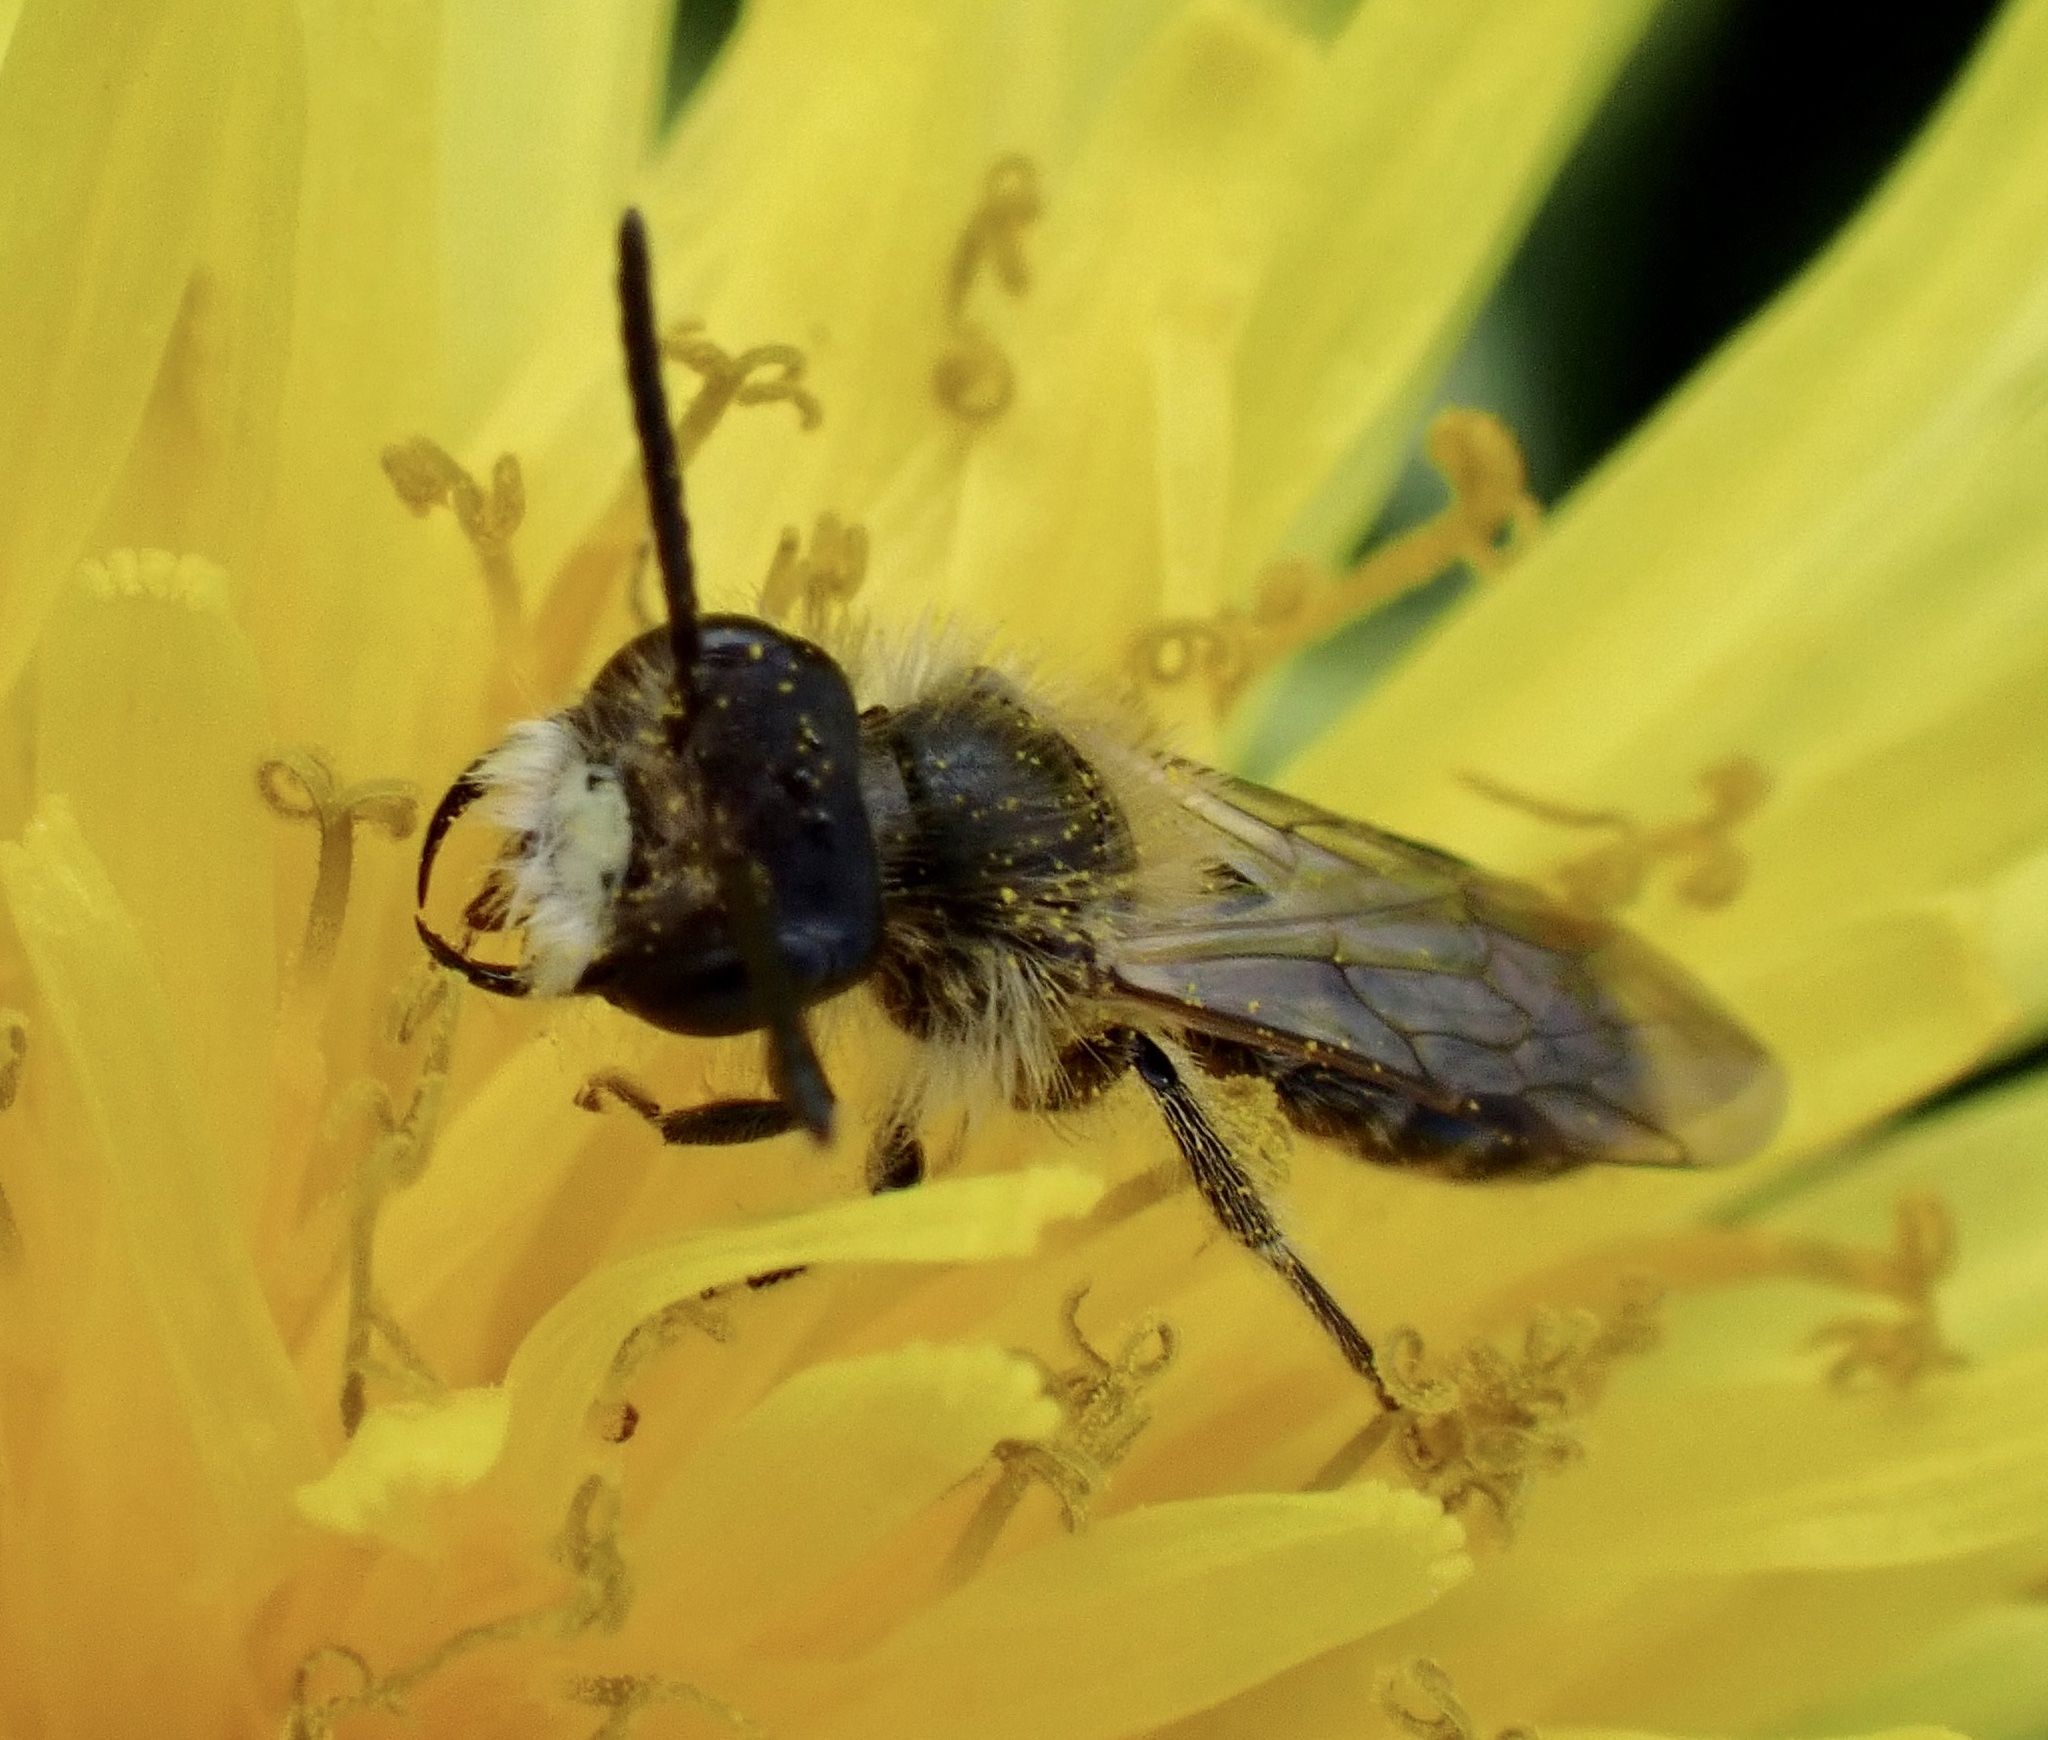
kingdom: Animalia
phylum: Arthropoda
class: Insecta
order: Hymenoptera
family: Andrenidae
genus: Andrena
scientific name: Andrena ventralis
